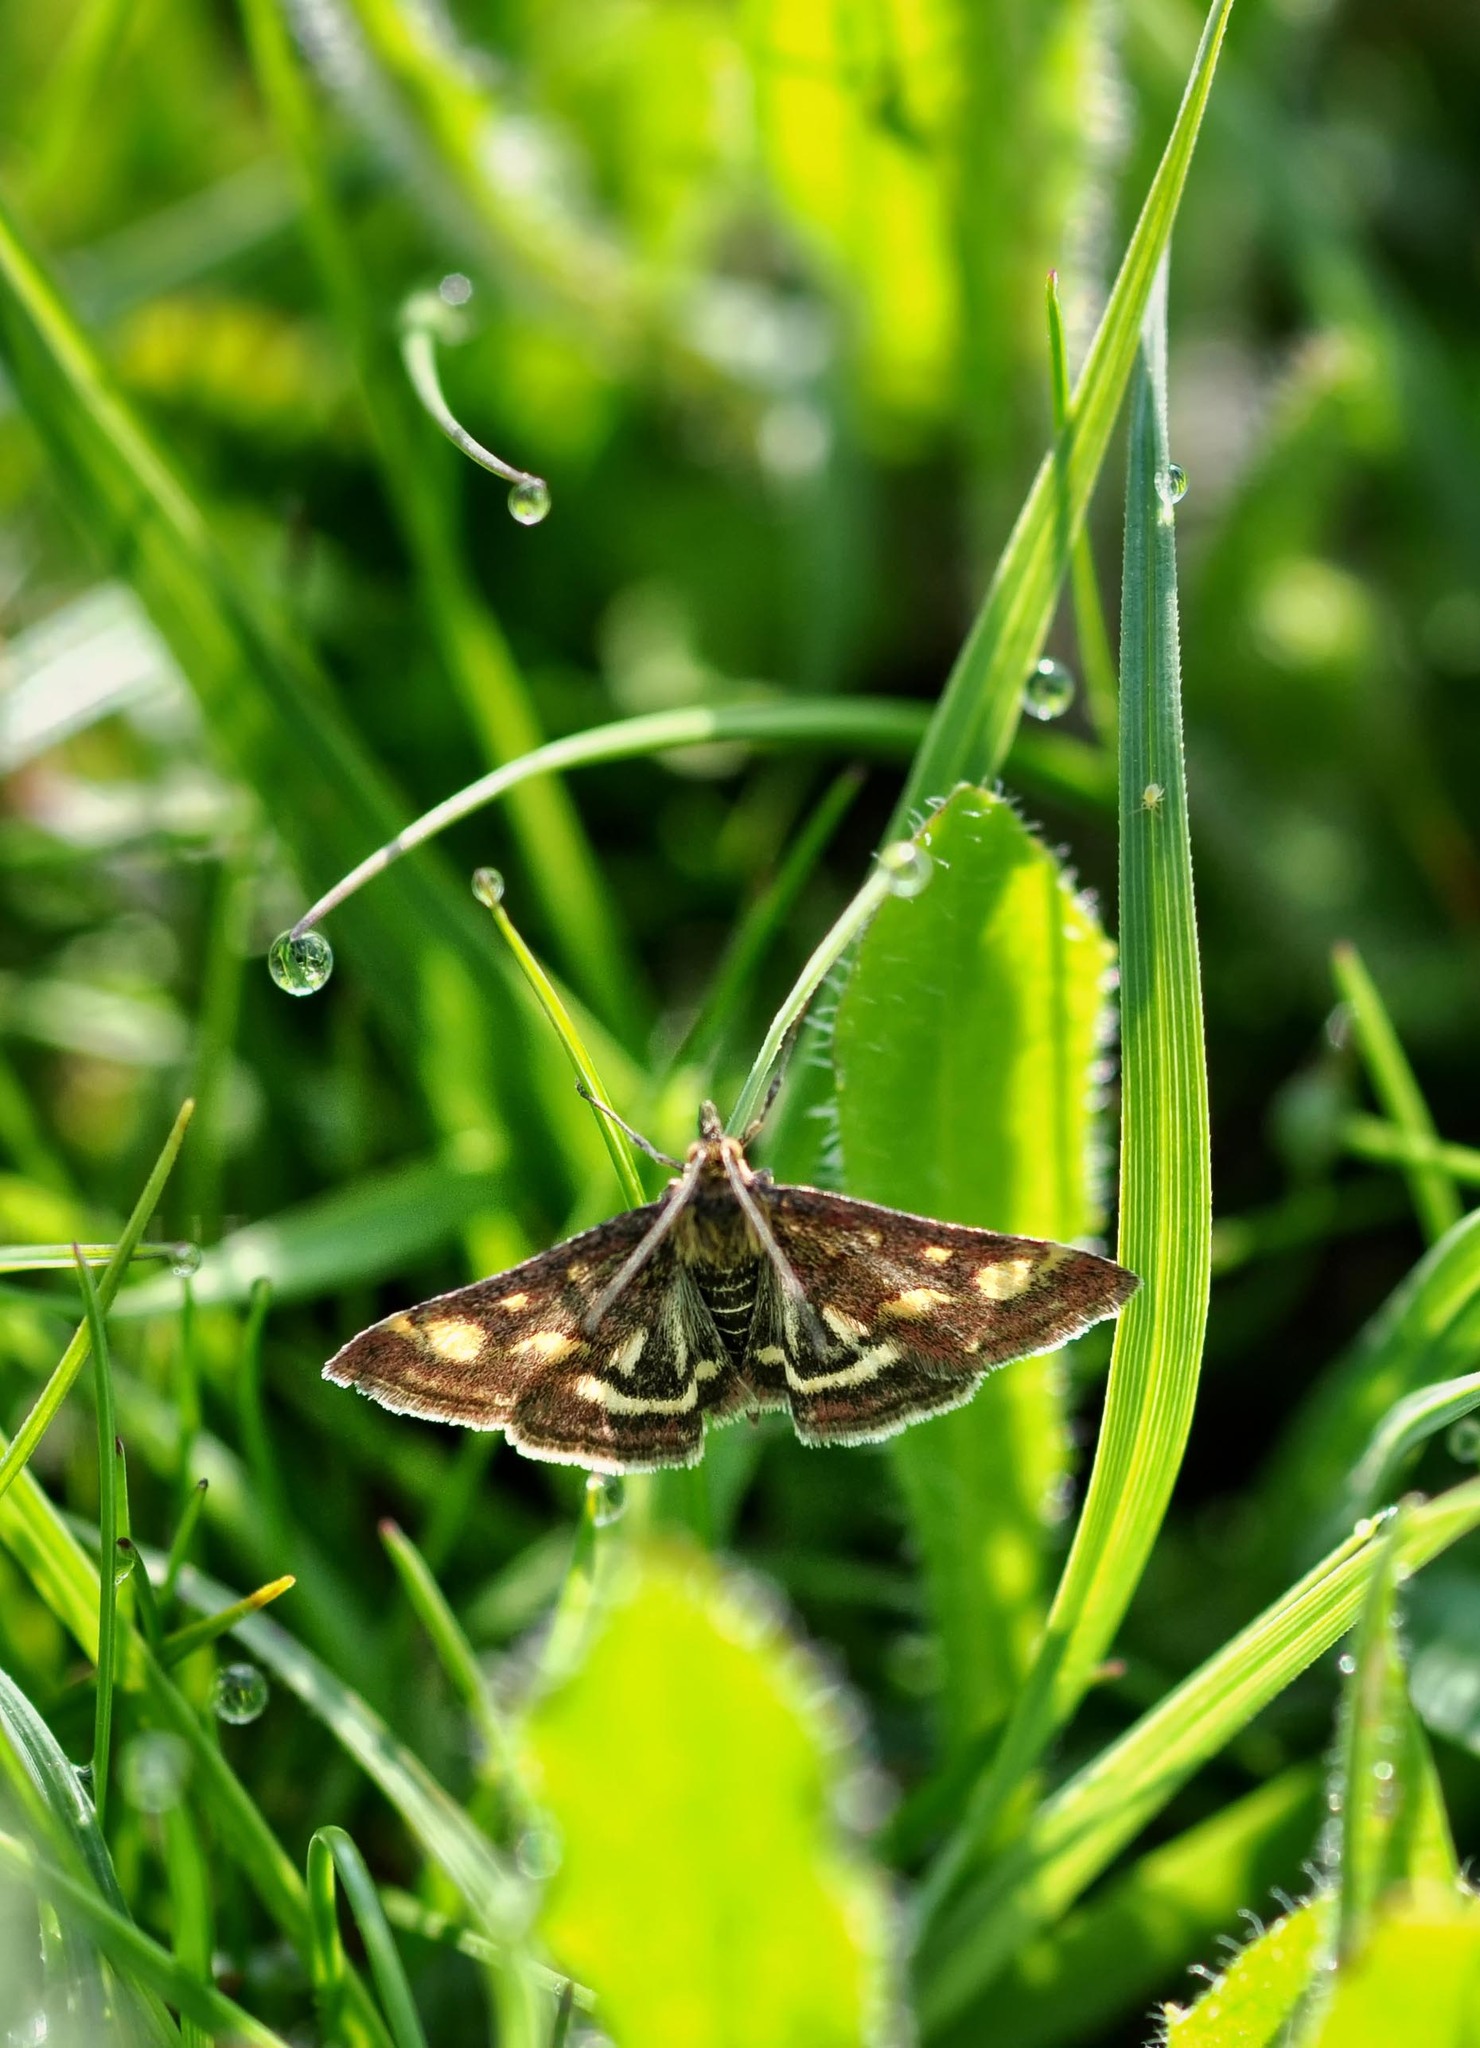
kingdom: Animalia
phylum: Arthropoda
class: Insecta
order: Lepidoptera
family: Crambidae
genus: Pyrausta
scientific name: Pyrausta purpuralis
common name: Common purple & gold
